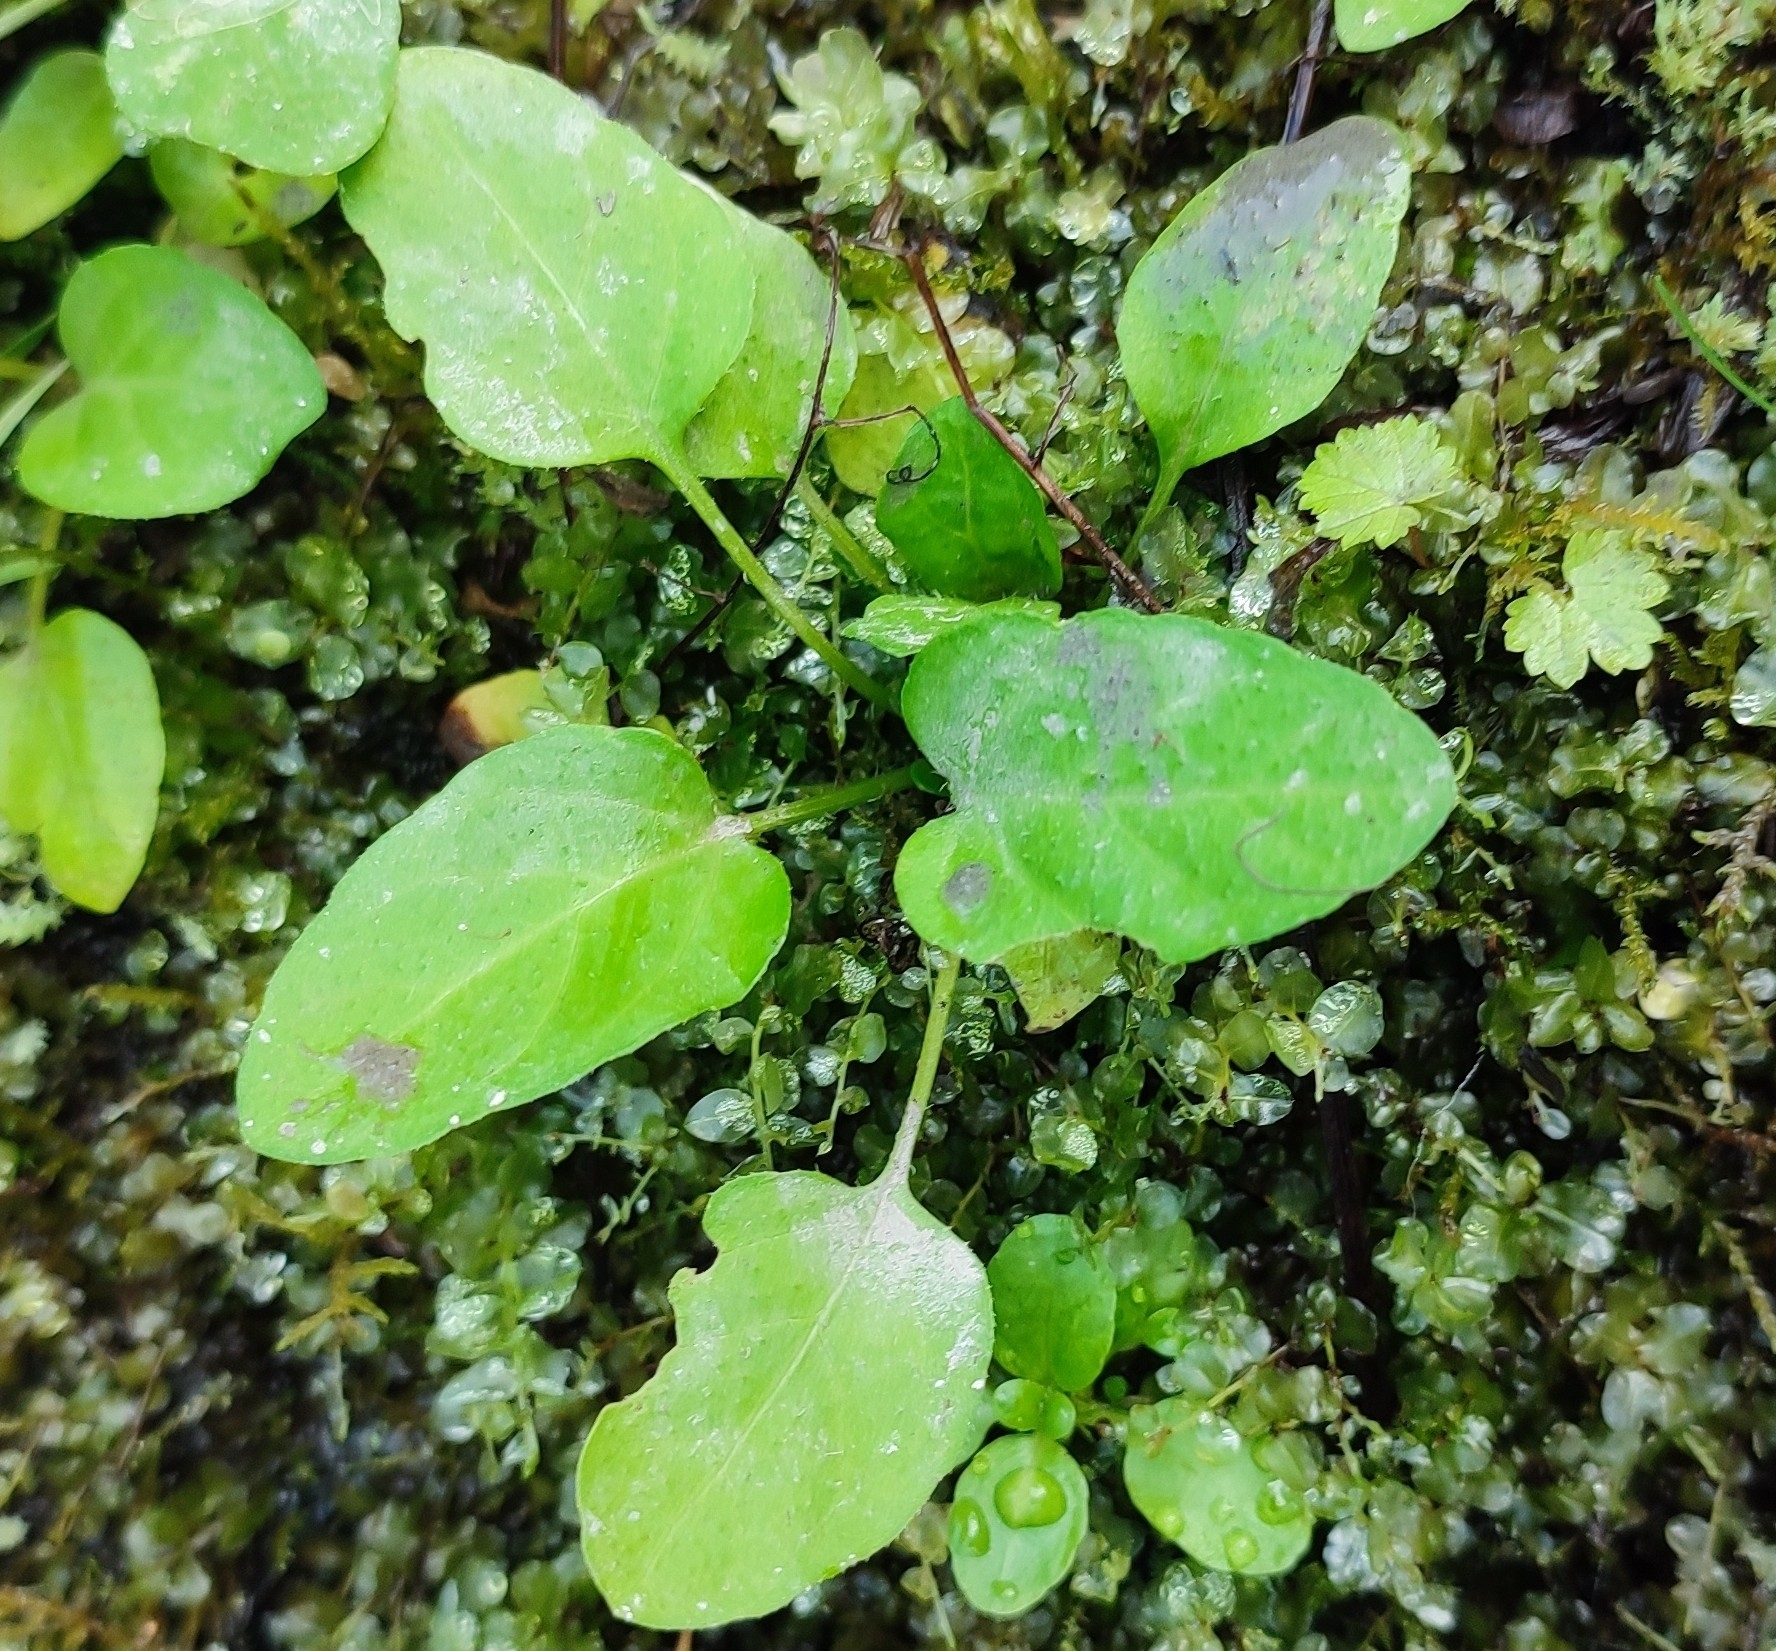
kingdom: Plantae
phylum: Tracheophyta
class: Magnoliopsida
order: Brassicales
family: Brassicaceae
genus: Rorippa
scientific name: Rorippa amphibia
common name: Great yellow-cress
